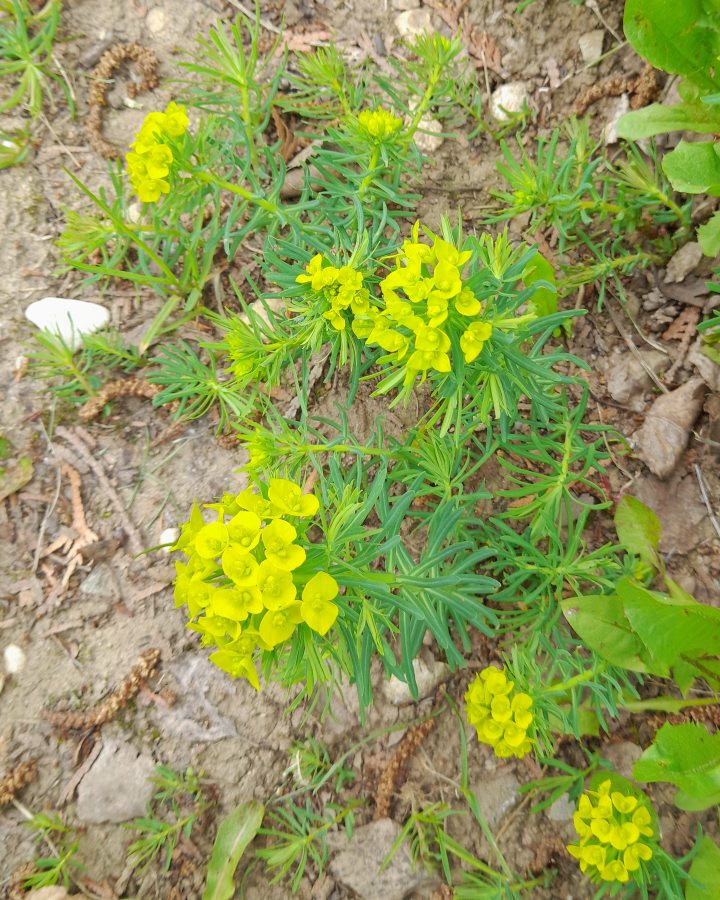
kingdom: Plantae
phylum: Tracheophyta
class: Magnoliopsida
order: Malpighiales
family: Euphorbiaceae
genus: Euphorbia
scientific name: Euphorbia cyparissias
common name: Cypress spurge
